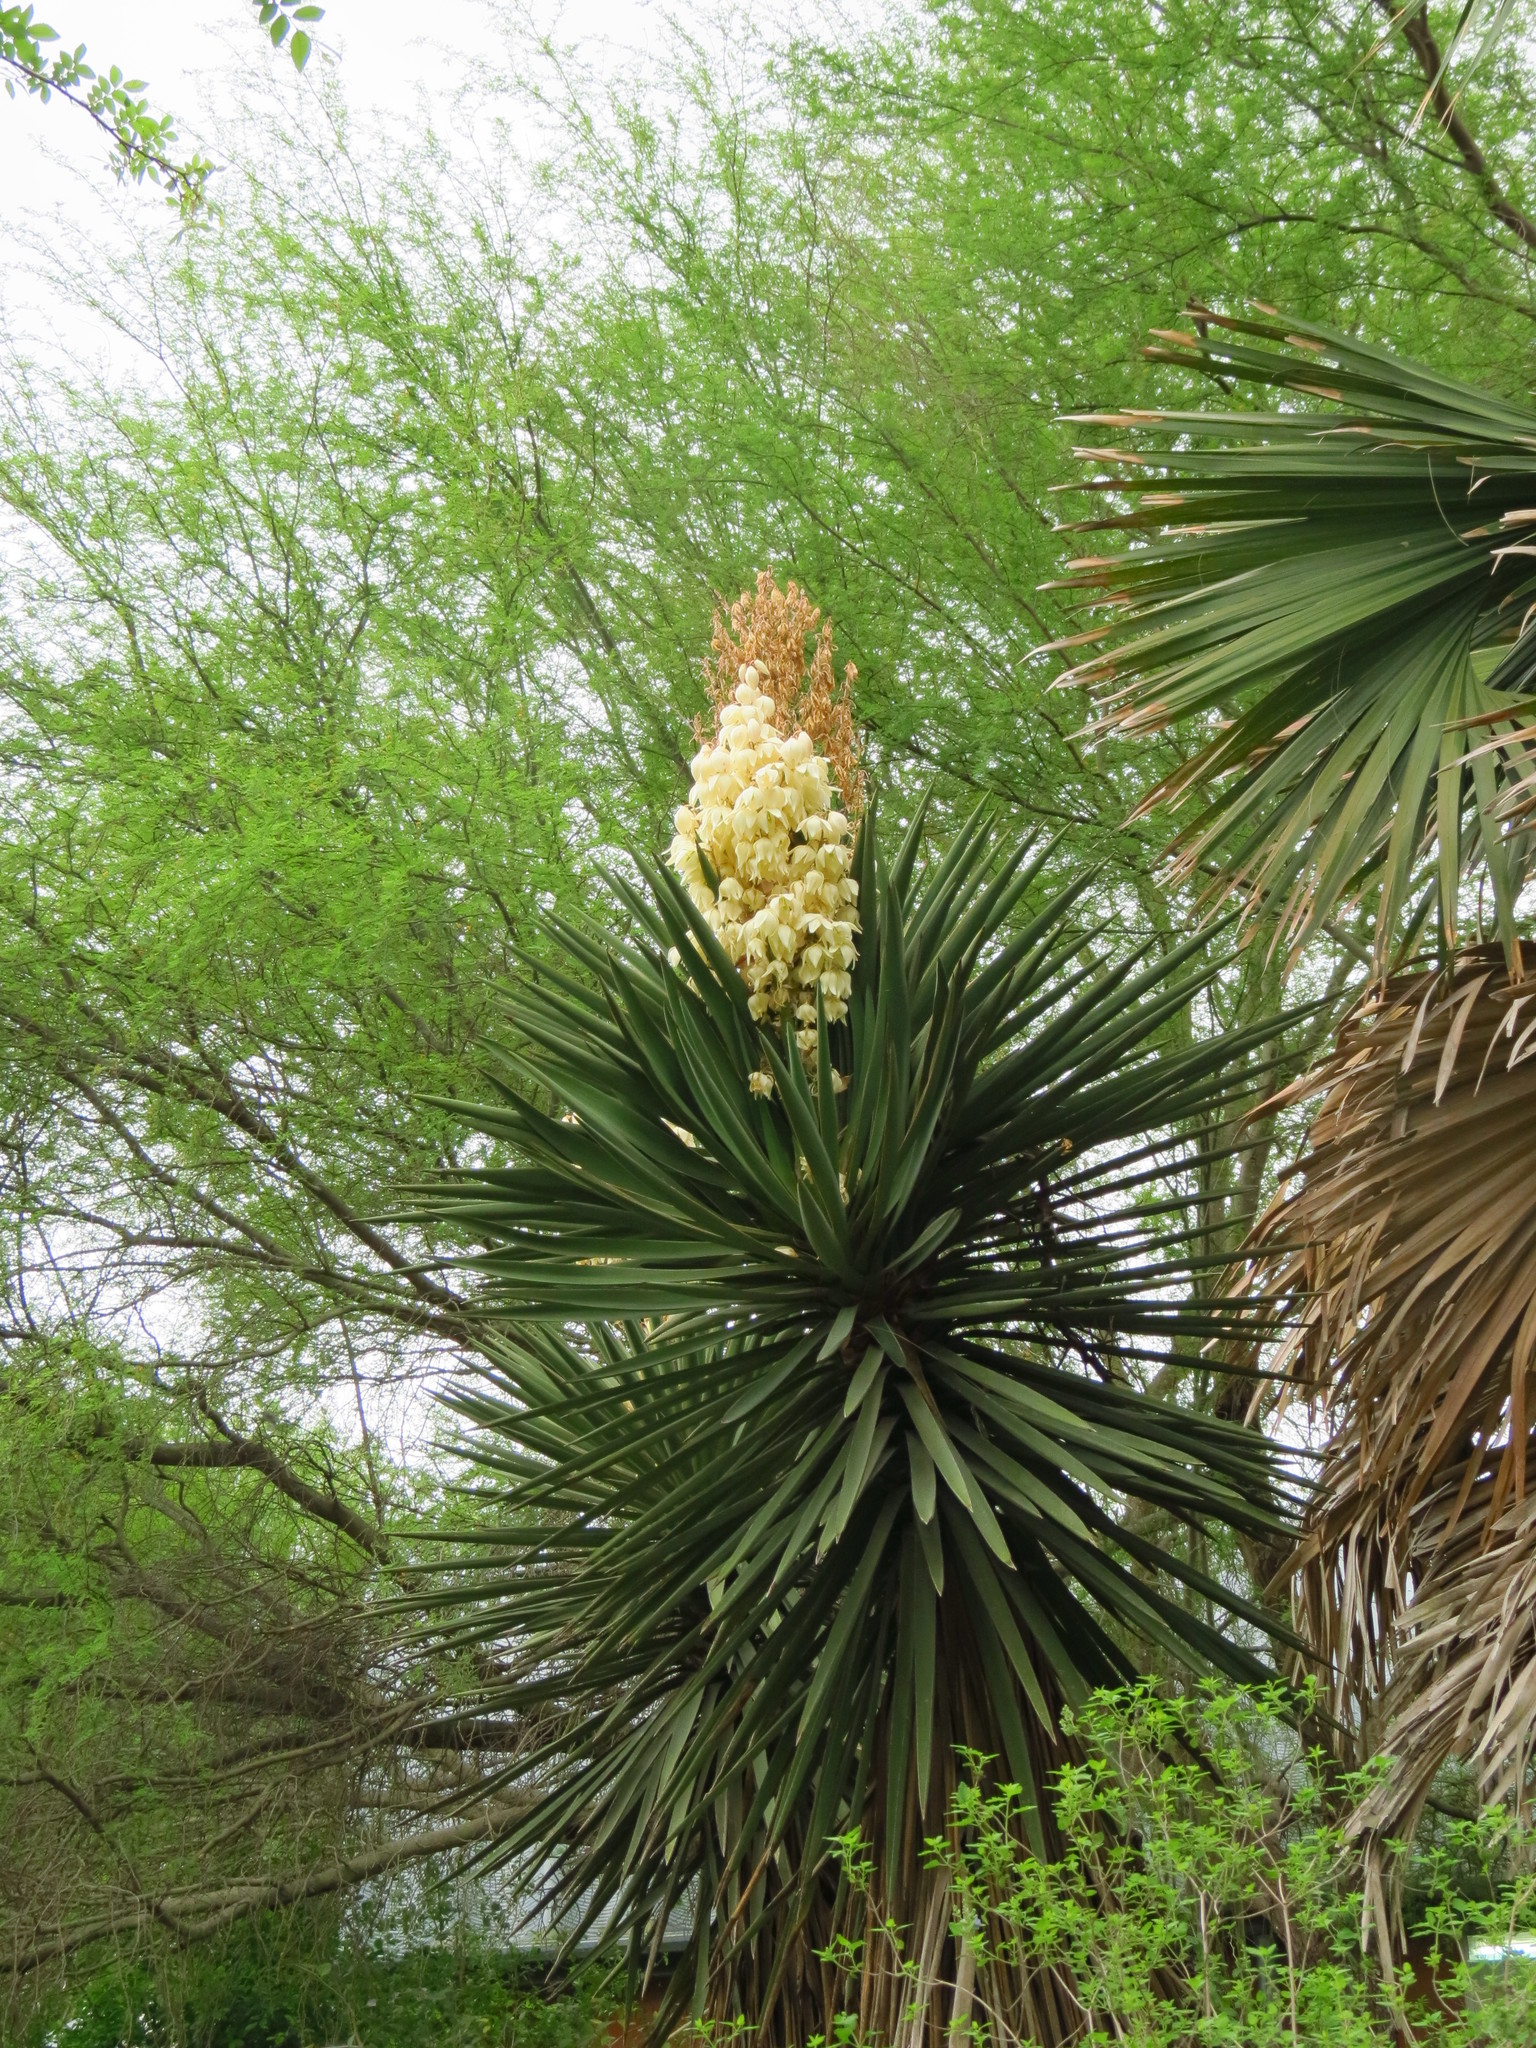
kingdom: Plantae
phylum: Tracheophyta
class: Liliopsida
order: Asparagales
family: Asparagaceae
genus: Yucca
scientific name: Yucca treculiana
